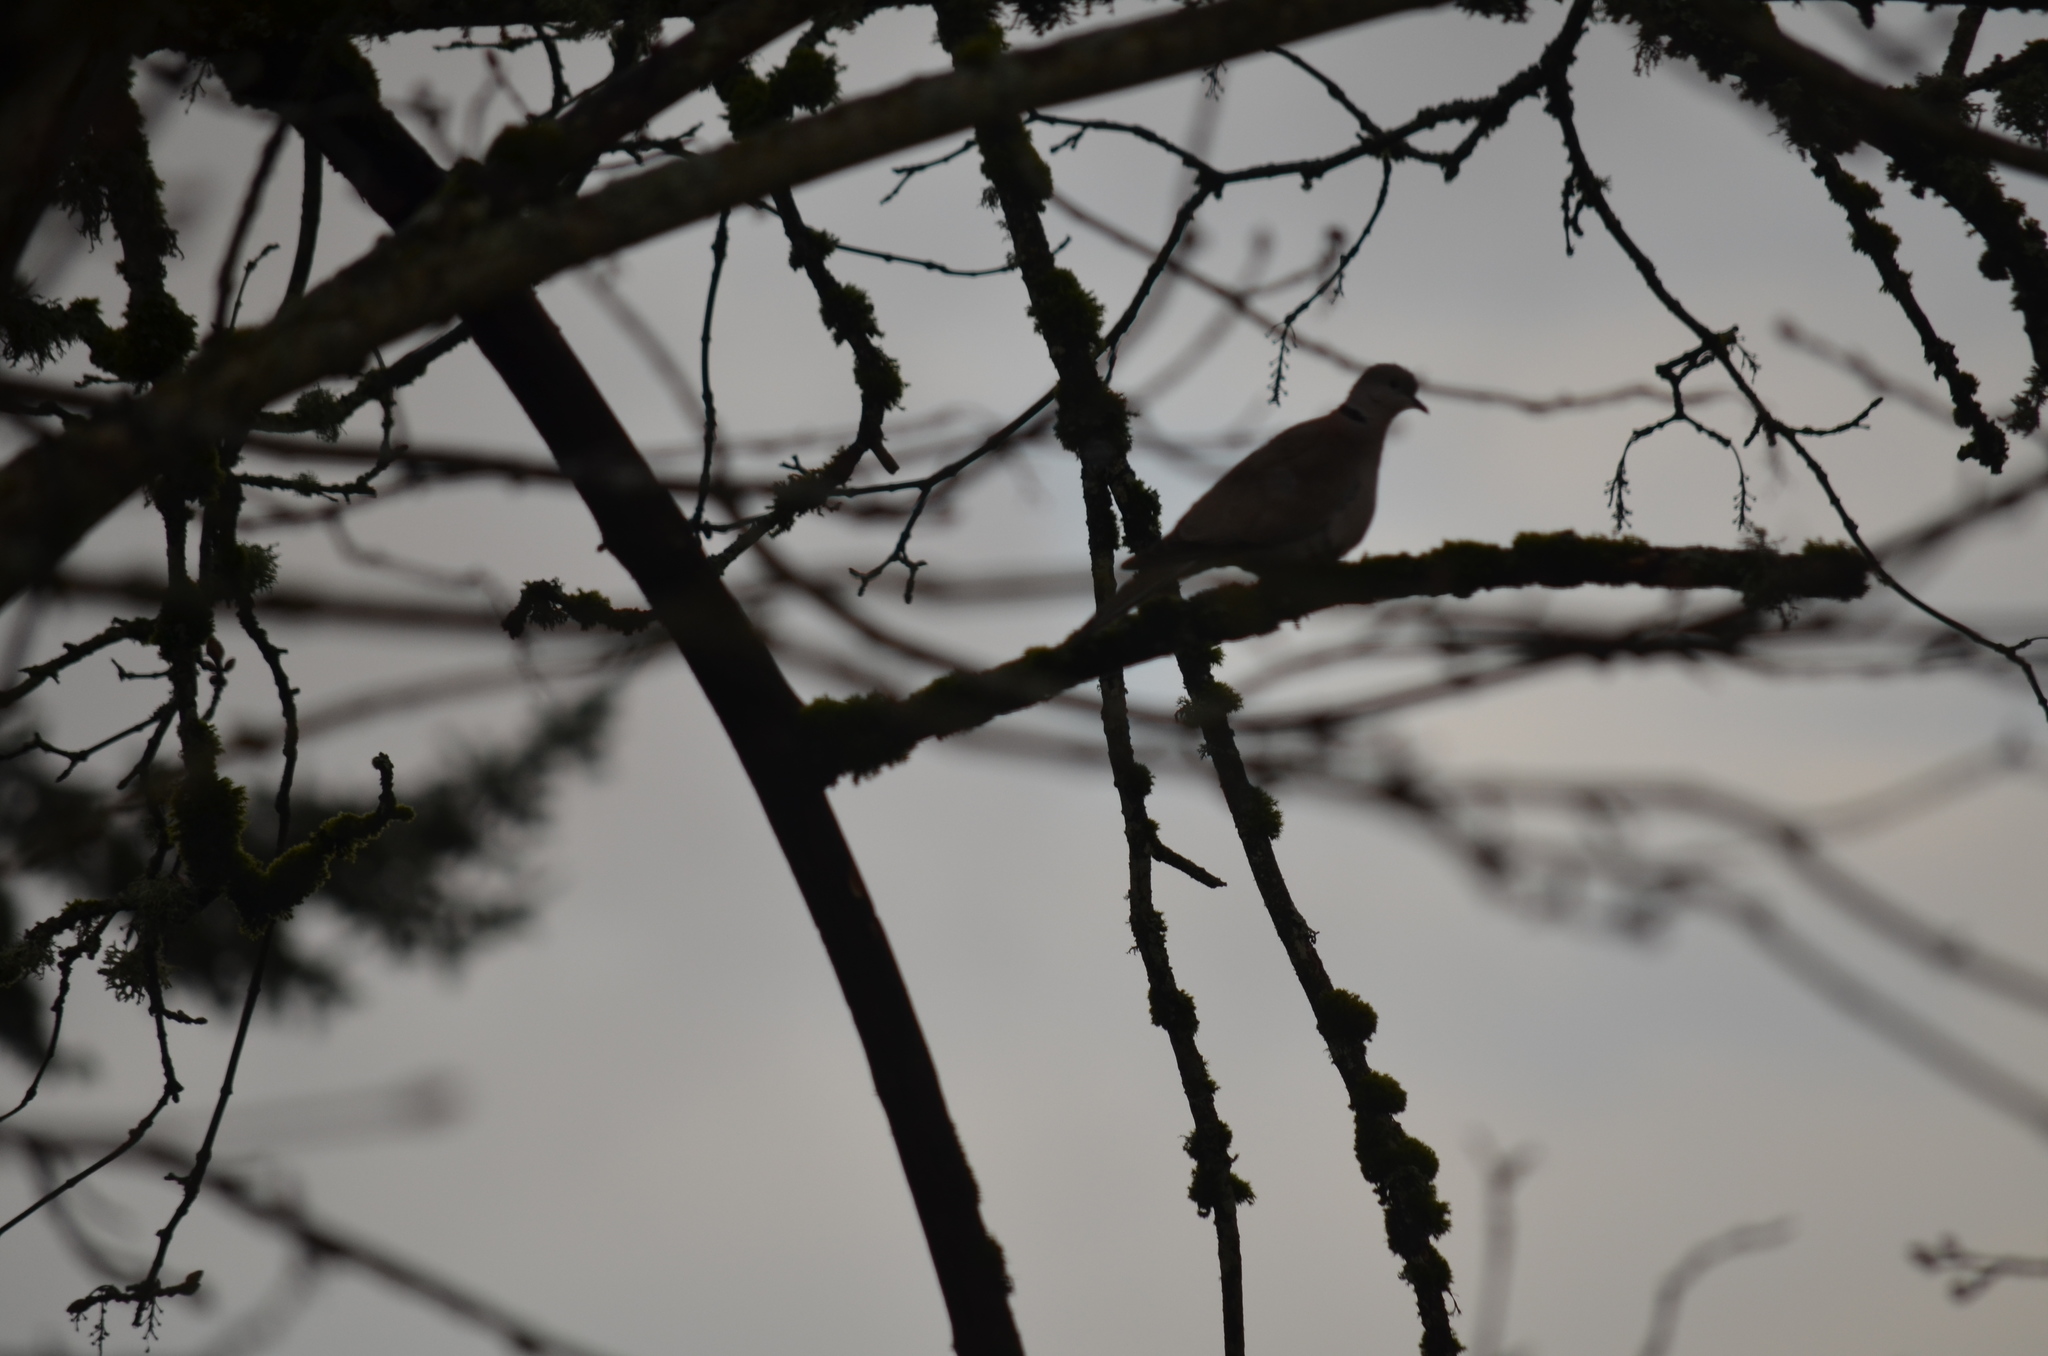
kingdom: Animalia
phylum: Chordata
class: Aves
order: Columbiformes
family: Columbidae
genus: Streptopelia
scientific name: Streptopelia decaocto
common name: Eurasian collared dove
